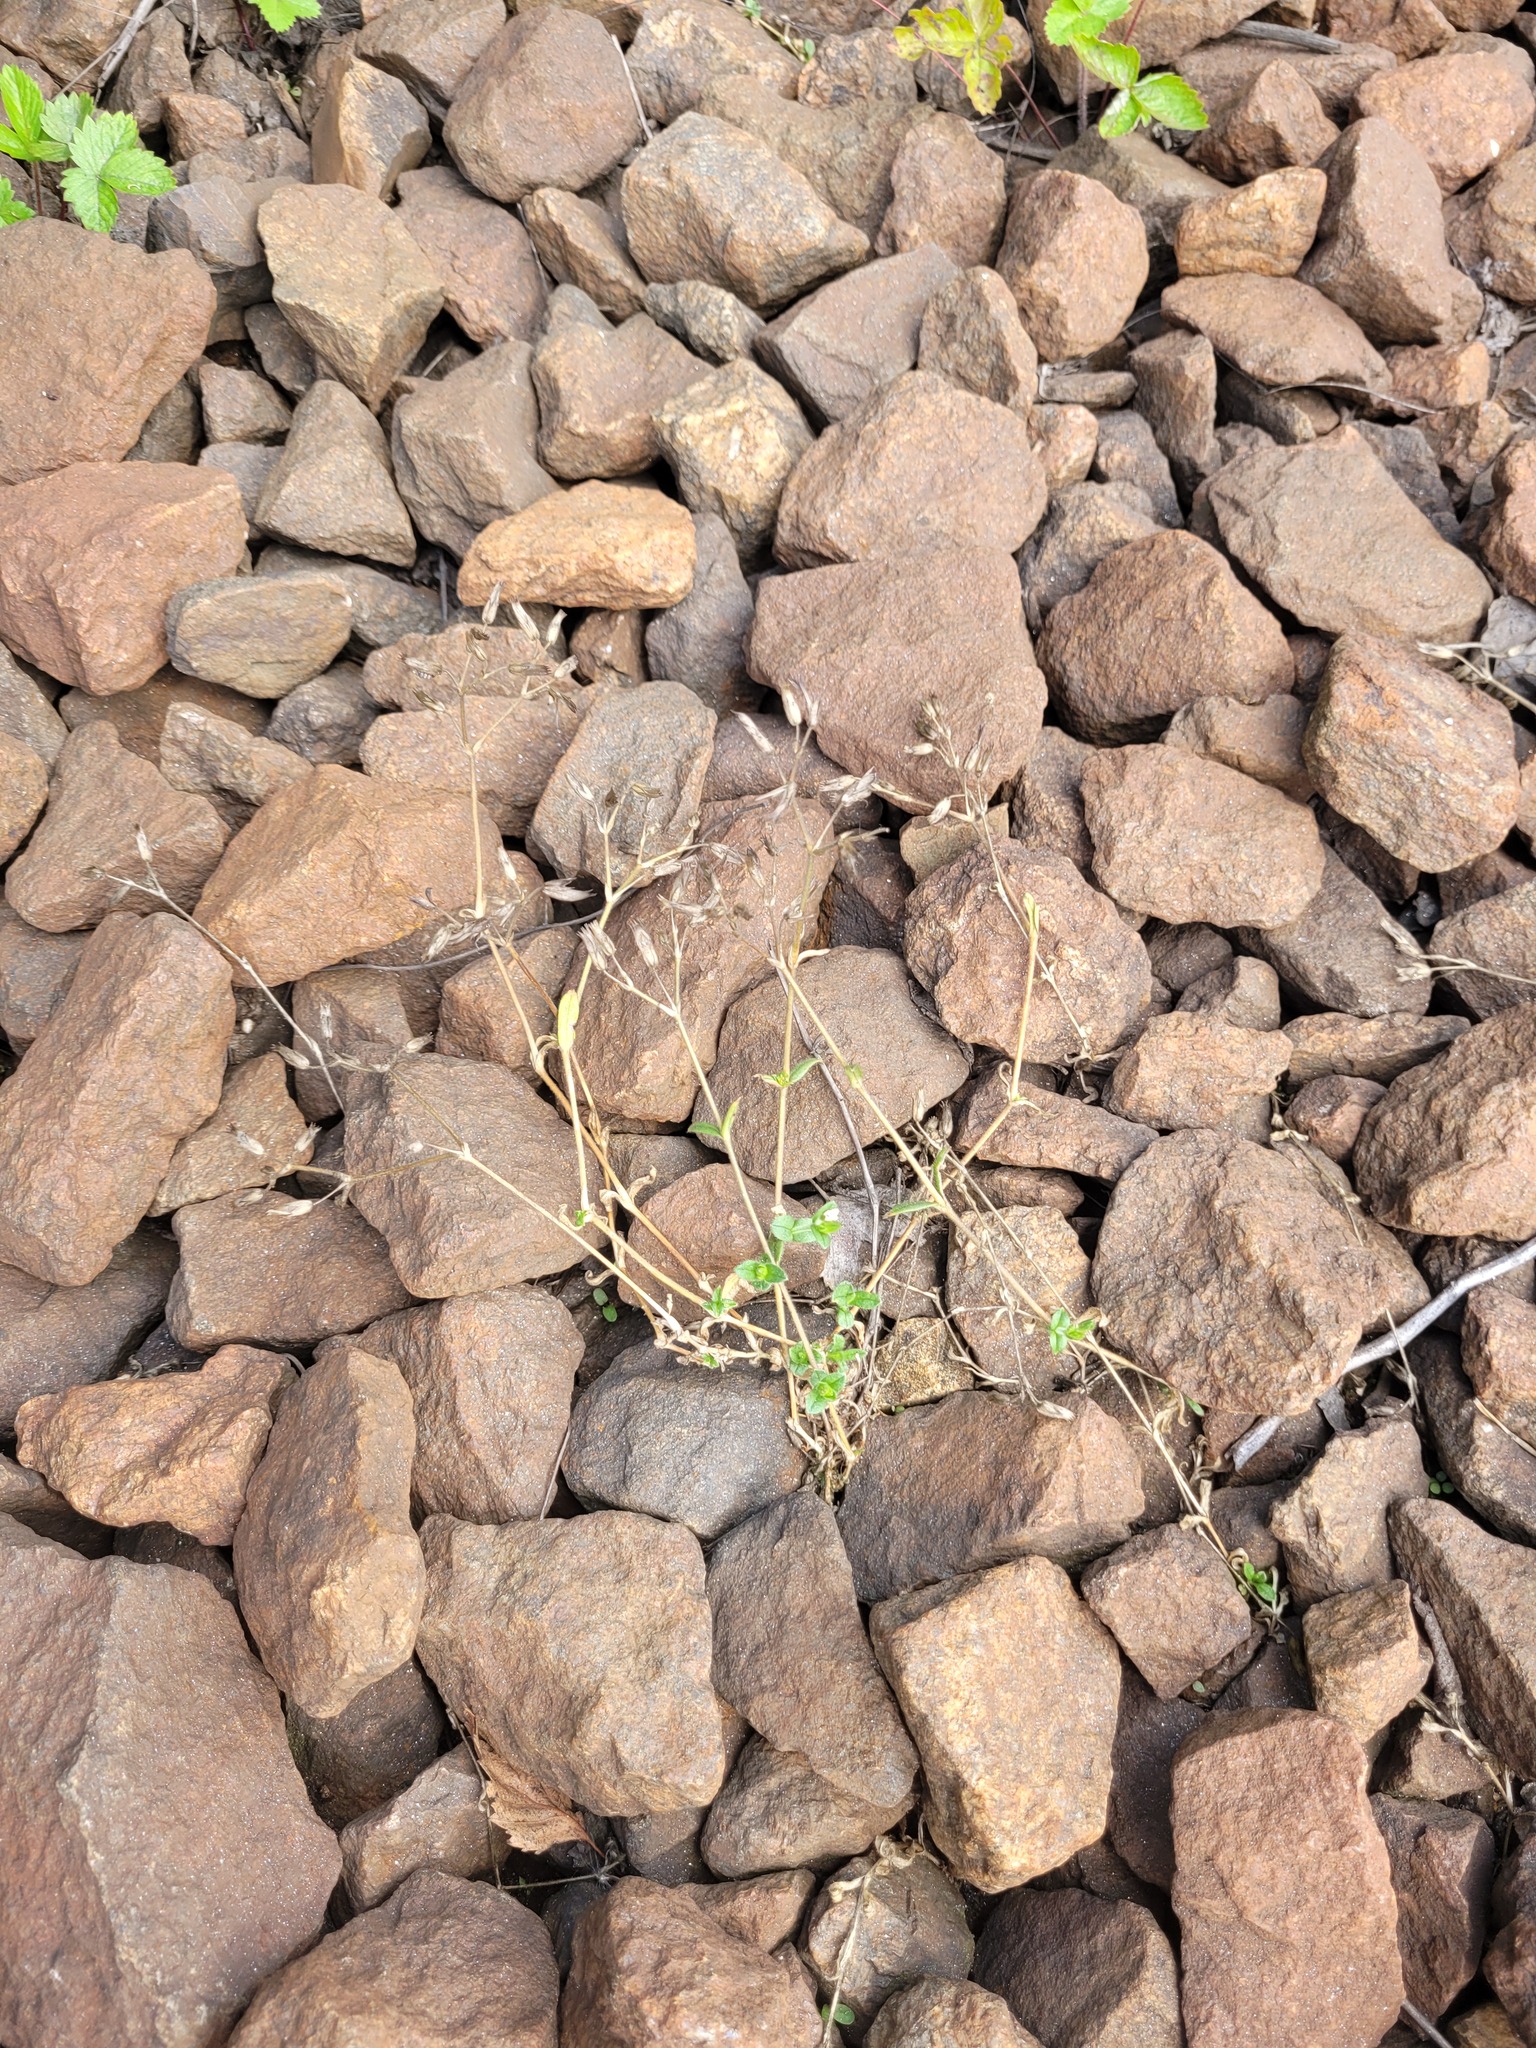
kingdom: Plantae
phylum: Tracheophyta
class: Magnoliopsida
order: Caryophyllales
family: Caryophyllaceae
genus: Cerastium
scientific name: Cerastium holosteoides
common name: Big chickweed
